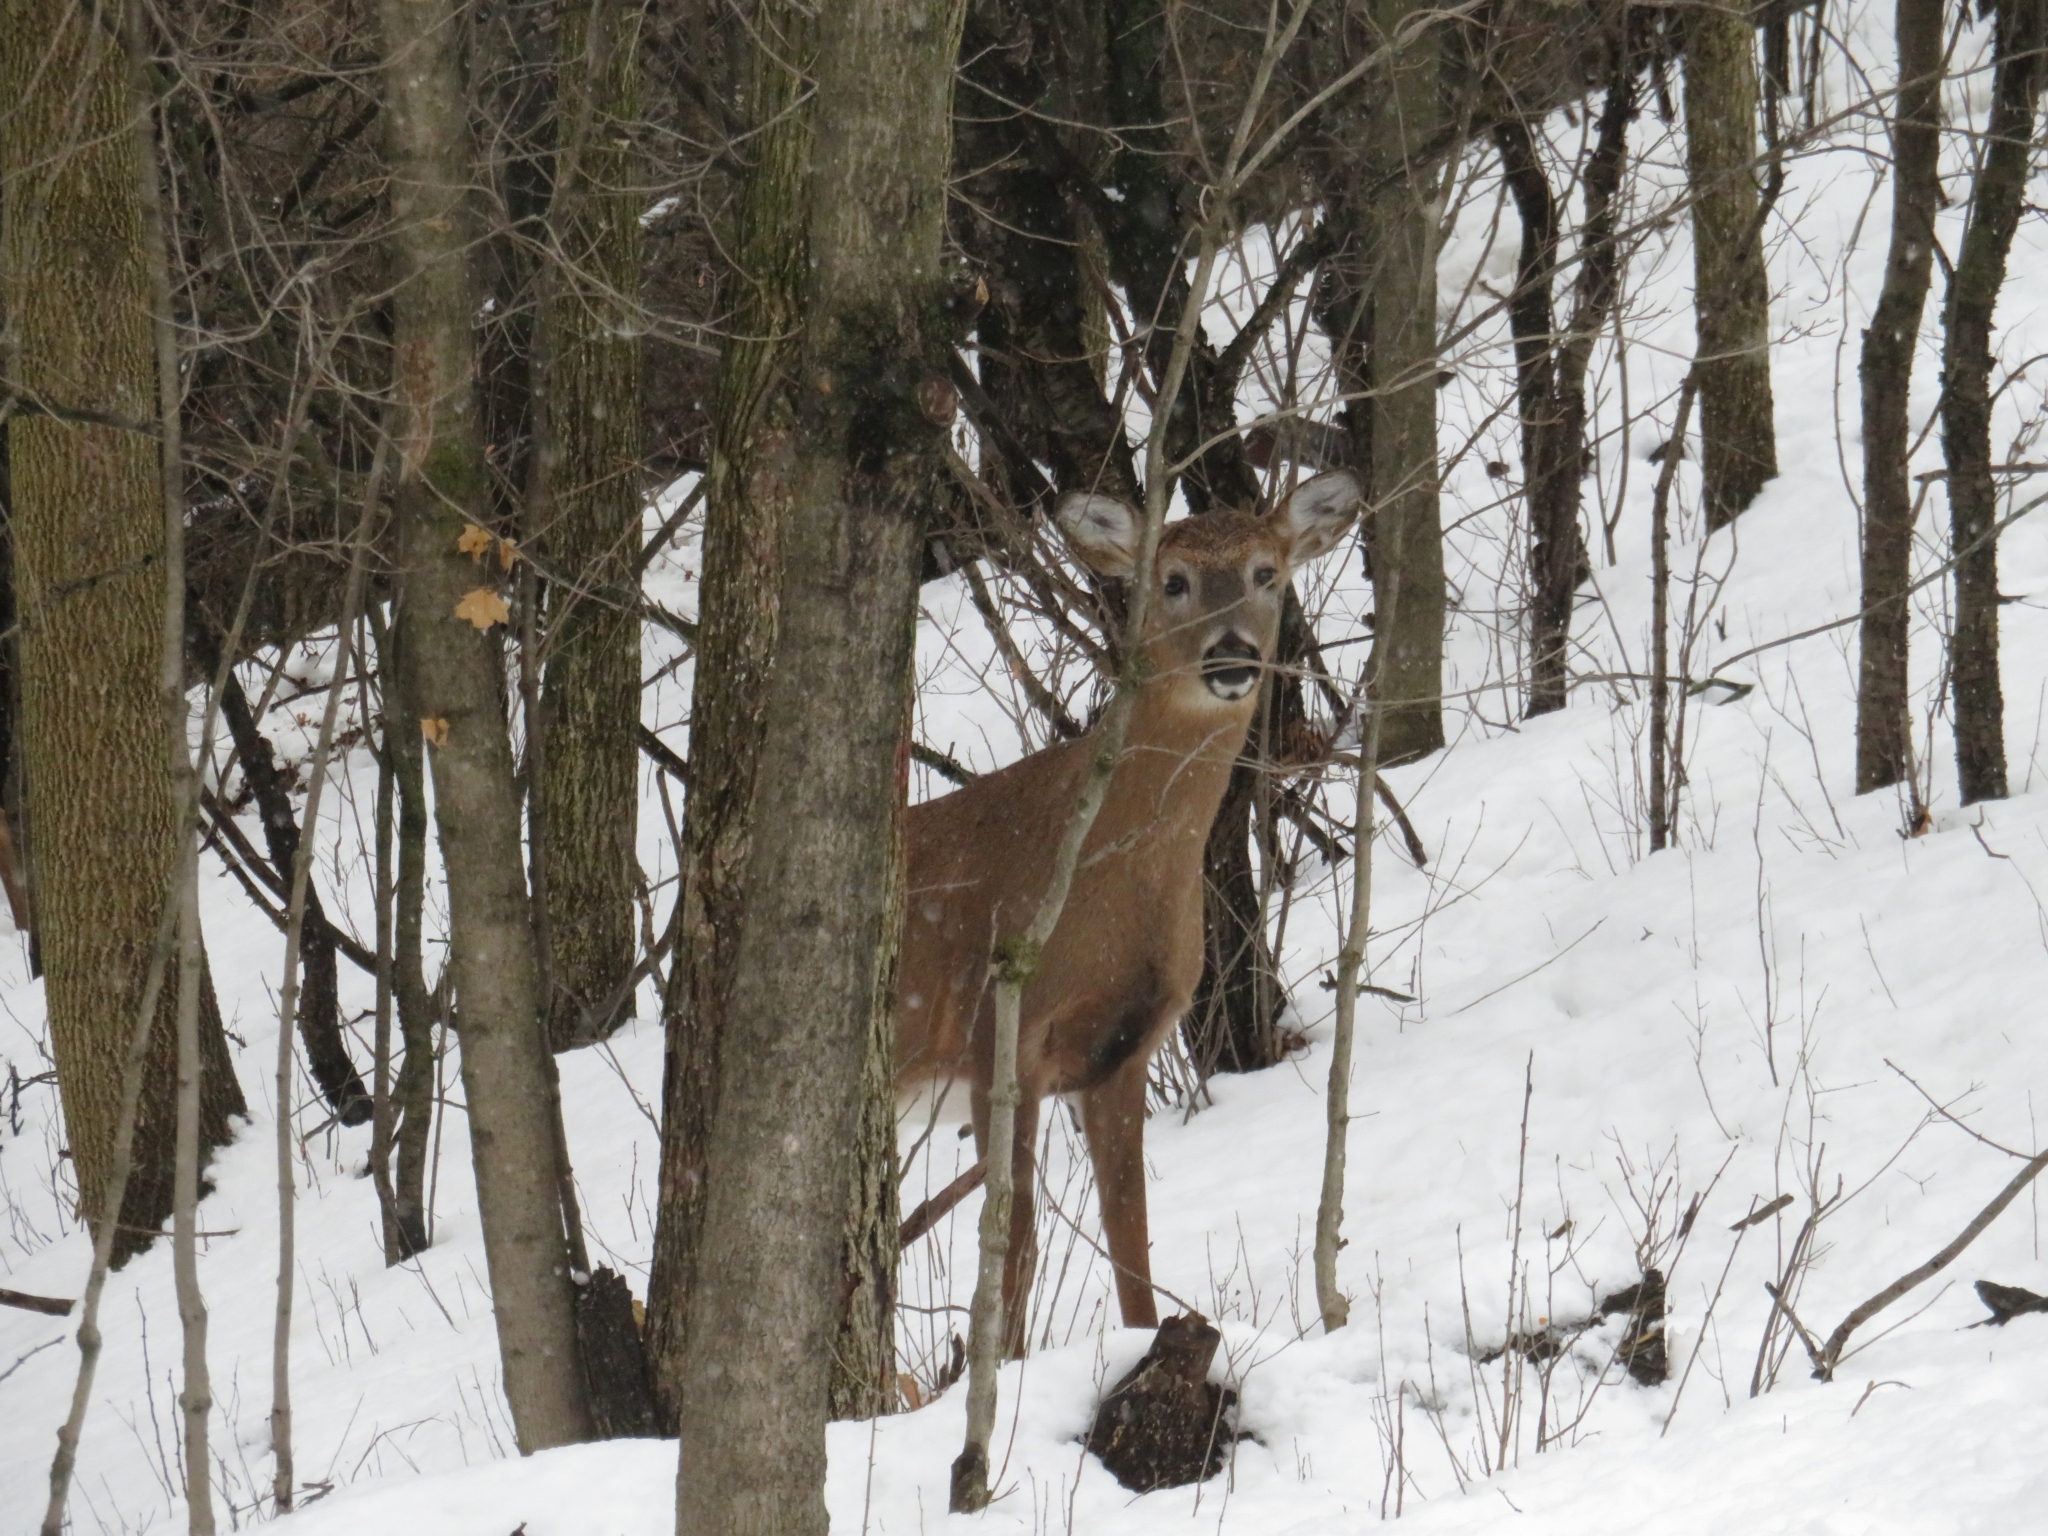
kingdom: Animalia
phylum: Chordata
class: Mammalia
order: Artiodactyla
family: Cervidae
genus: Odocoileus
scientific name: Odocoileus virginianus
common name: White-tailed deer
